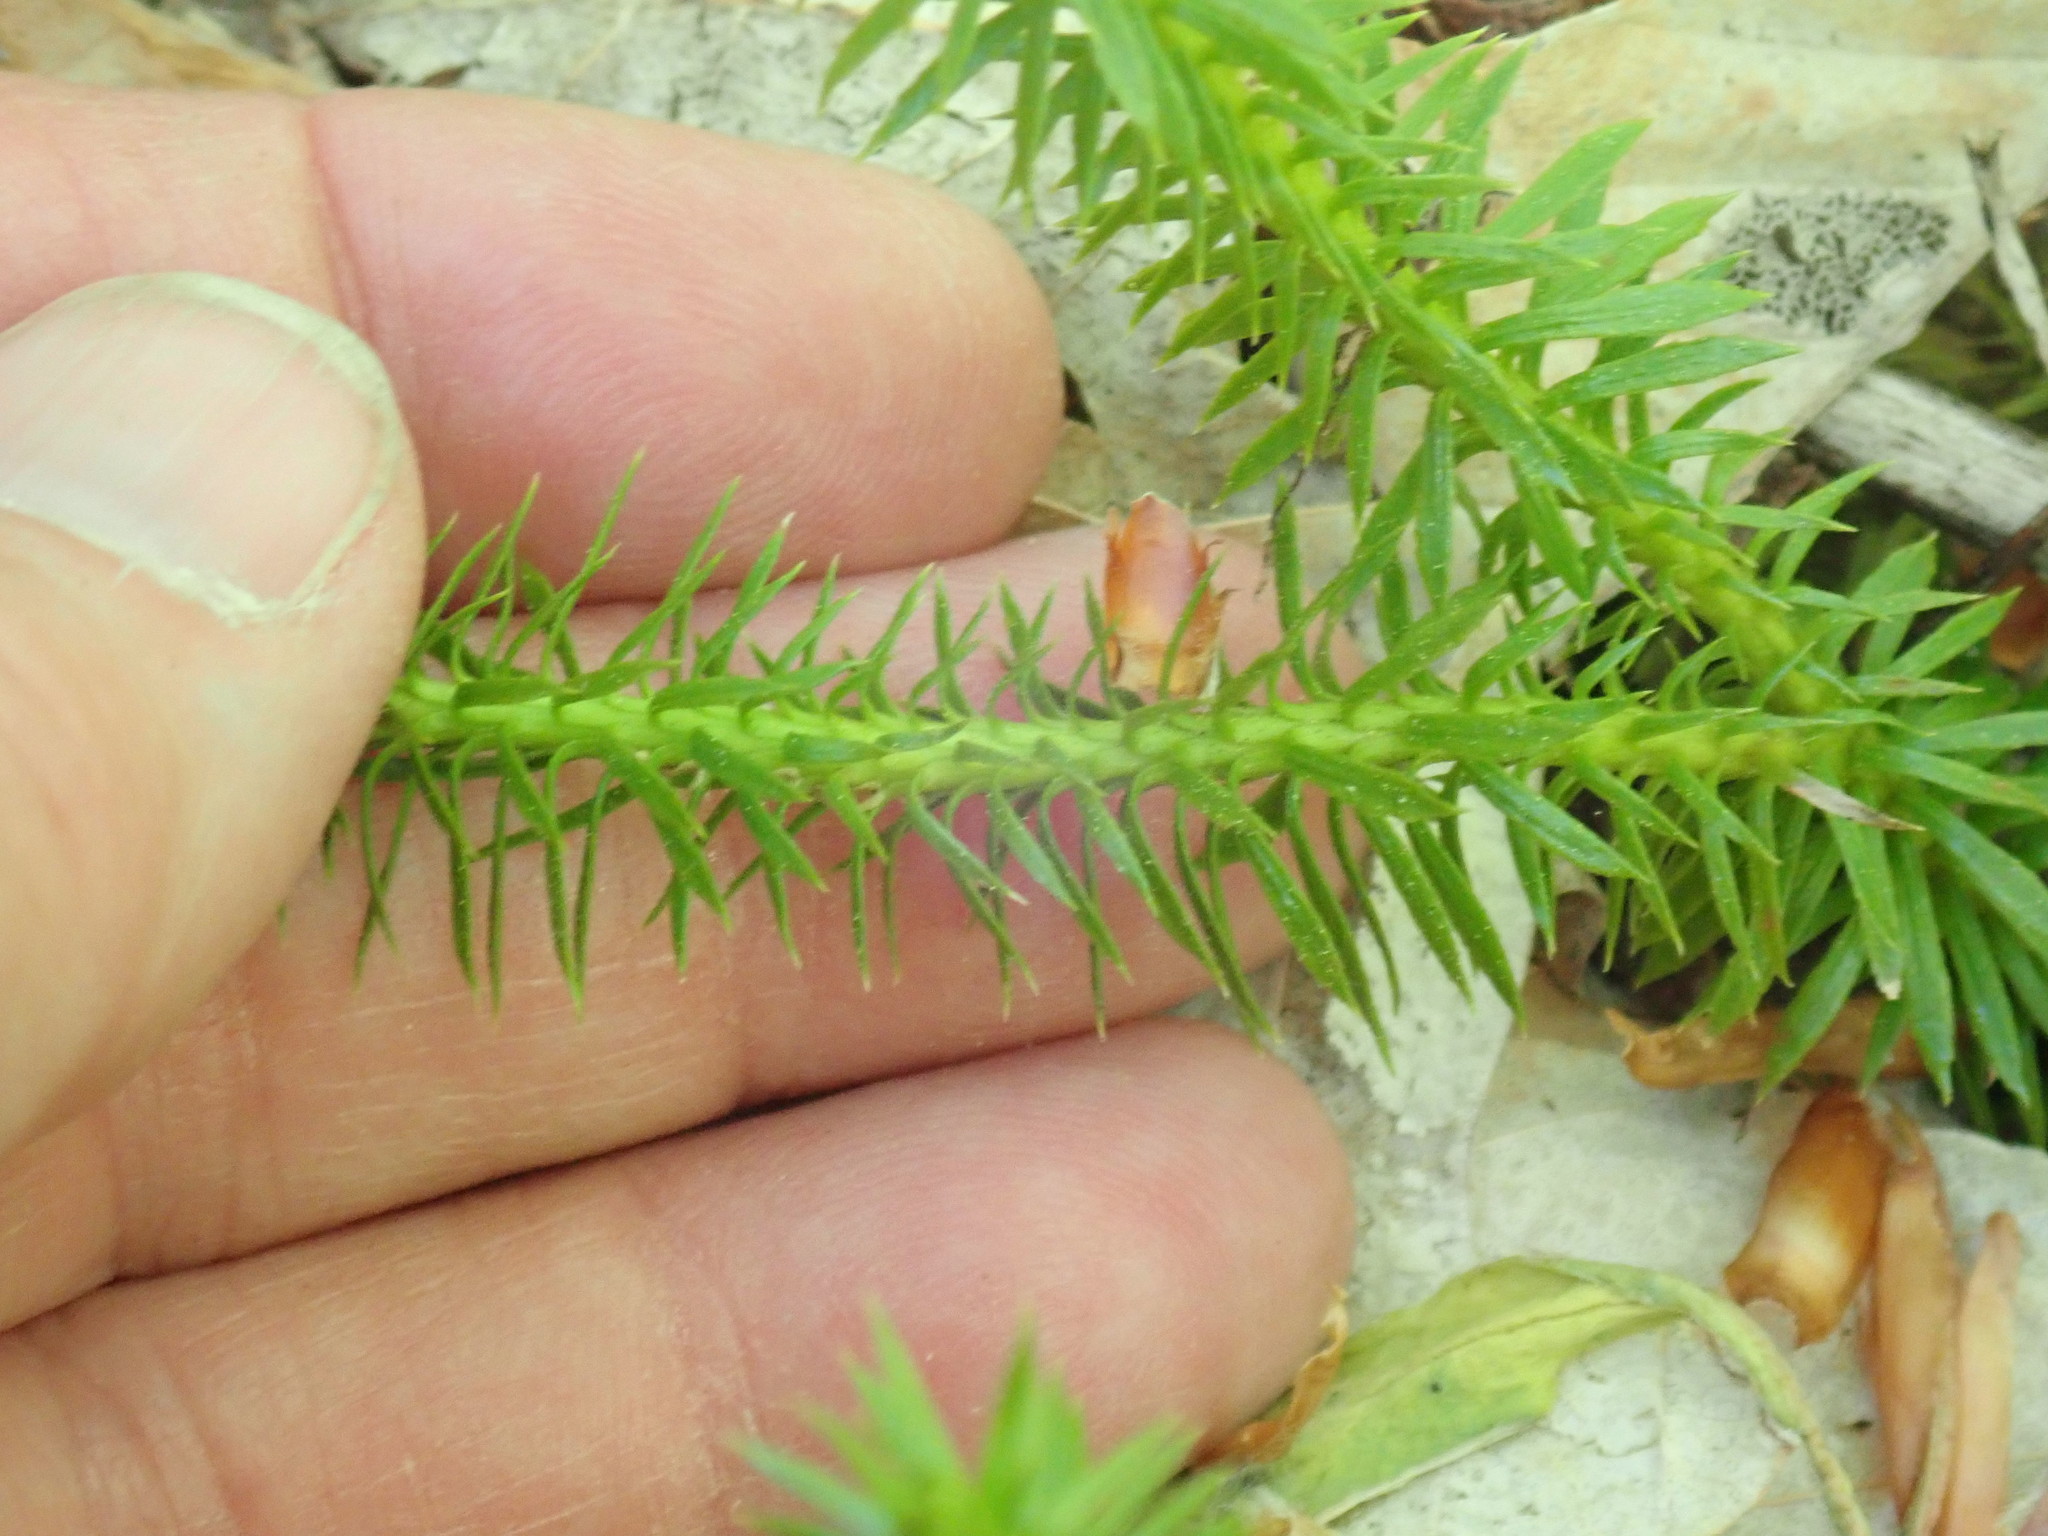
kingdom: Plantae
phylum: Tracheophyta
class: Lycopodiopsida
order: Lycopodiales
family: Lycopodiaceae
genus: Huperzia
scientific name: Huperzia lucidula
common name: Shining clubmoss
